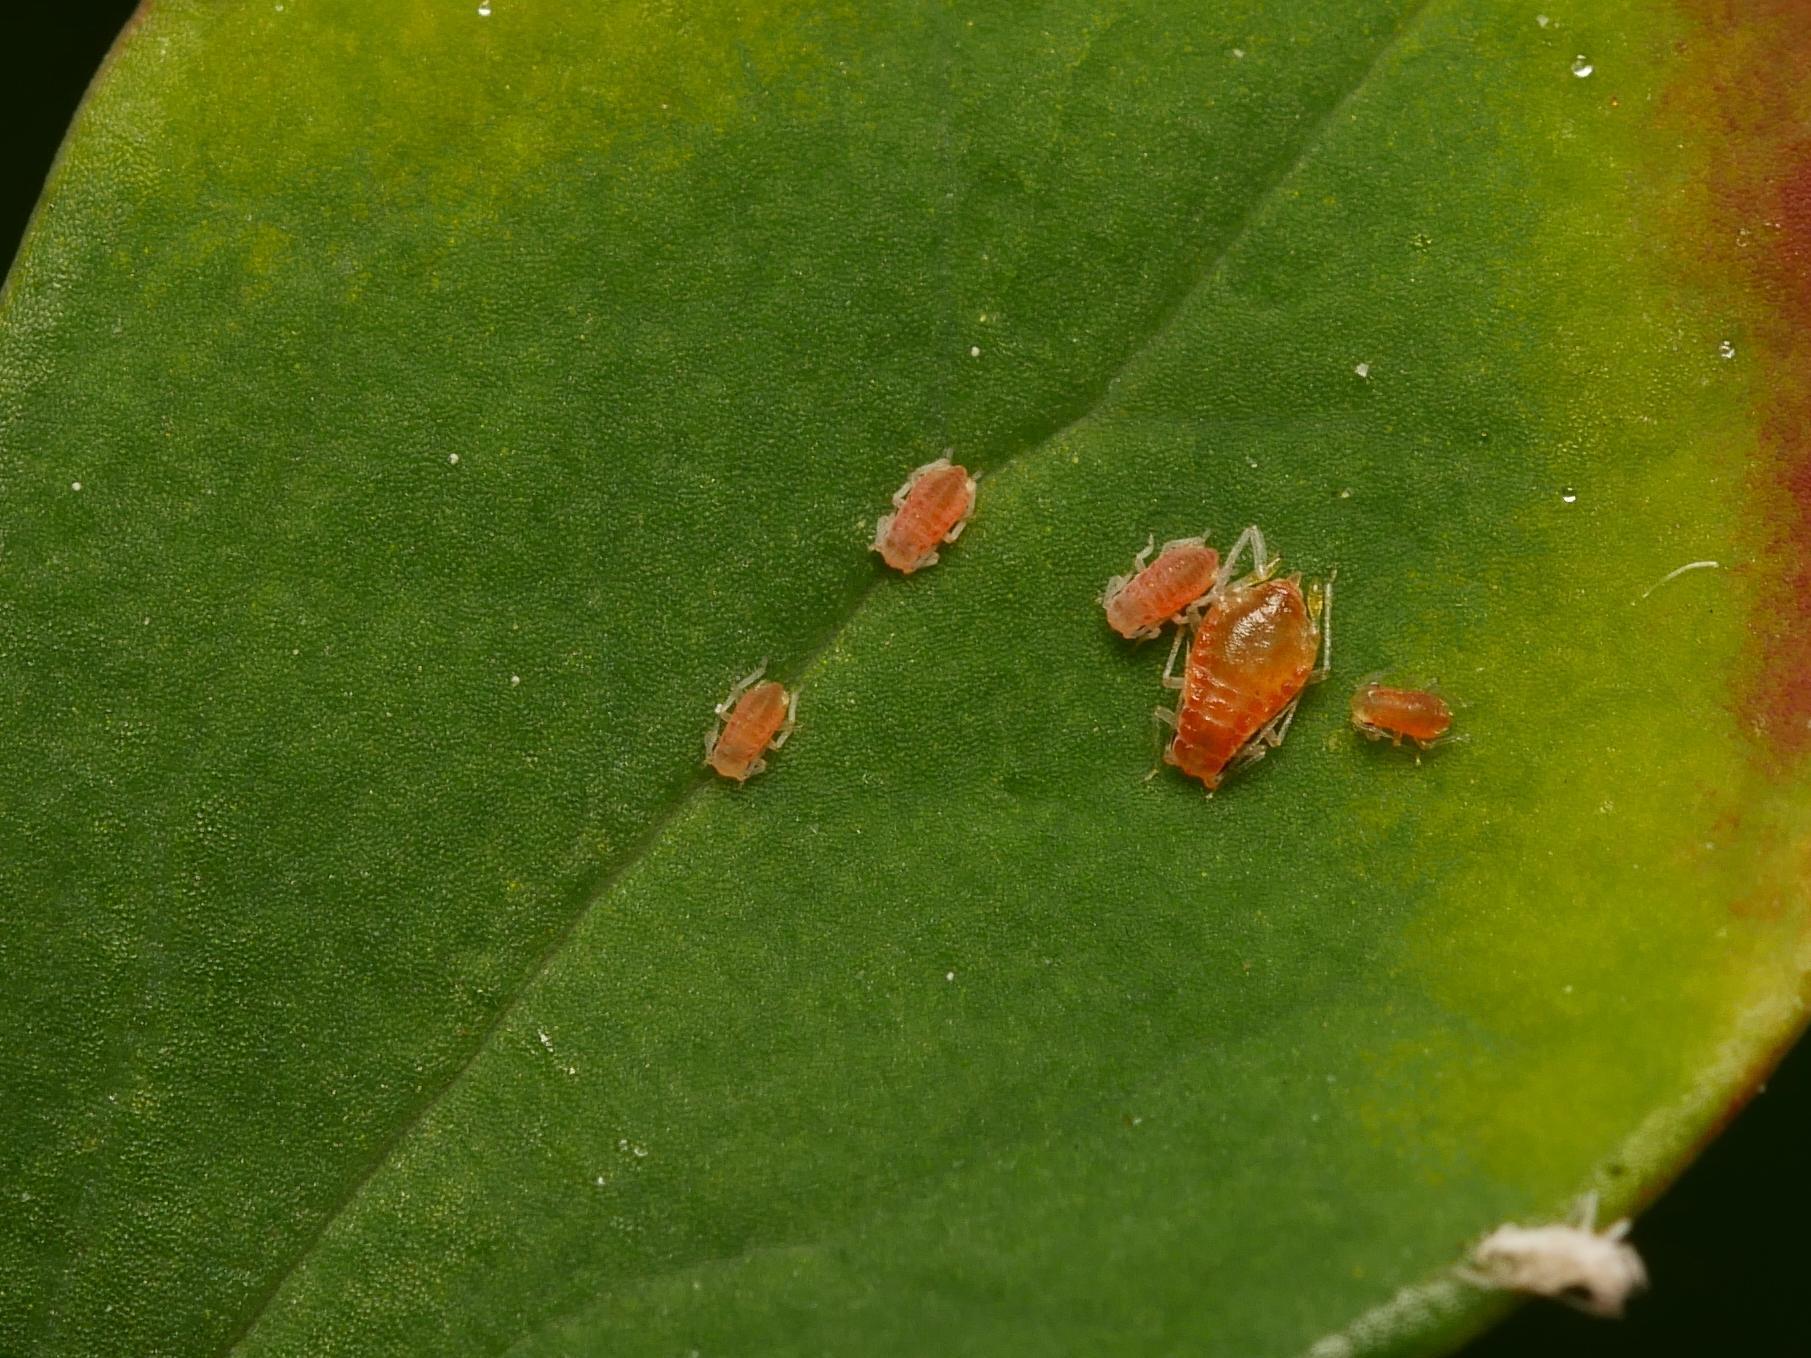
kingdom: Animalia
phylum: Arthropoda
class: Insecta
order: Hemiptera
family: Aphididae
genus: Liosomaphis
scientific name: Liosomaphis berberidis
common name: Barberry aphid
